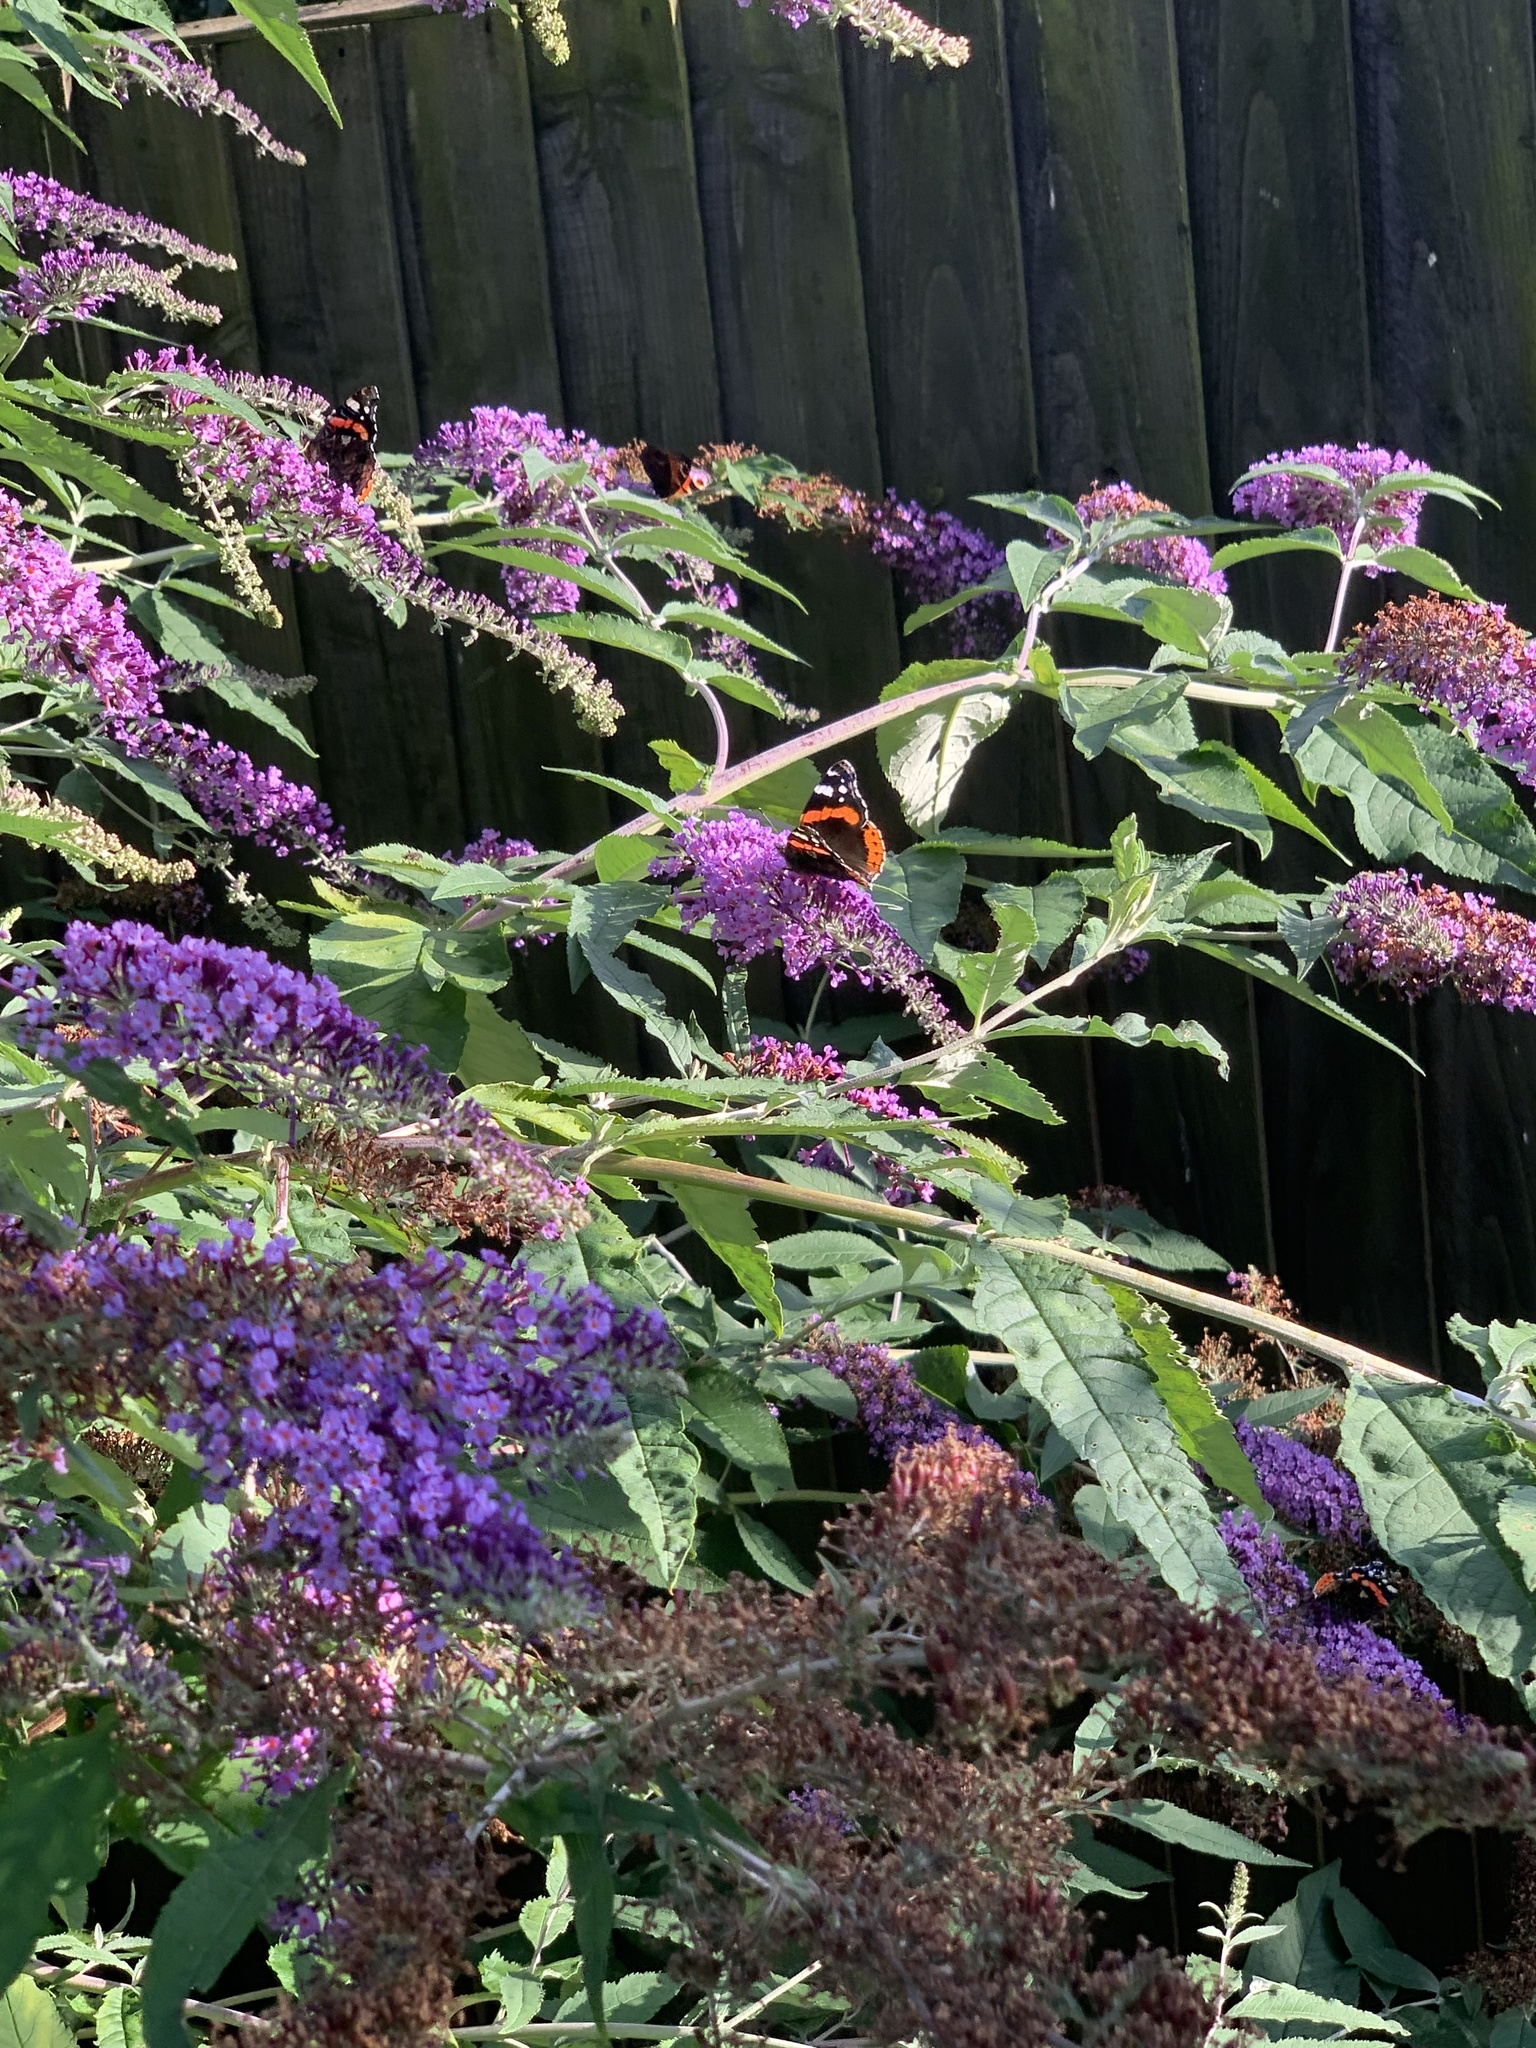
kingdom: Animalia
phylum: Arthropoda
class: Insecta
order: Lepidoptera
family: Nymphalidae
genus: Vanessa
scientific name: Vanessa atalanta
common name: Red admiral
